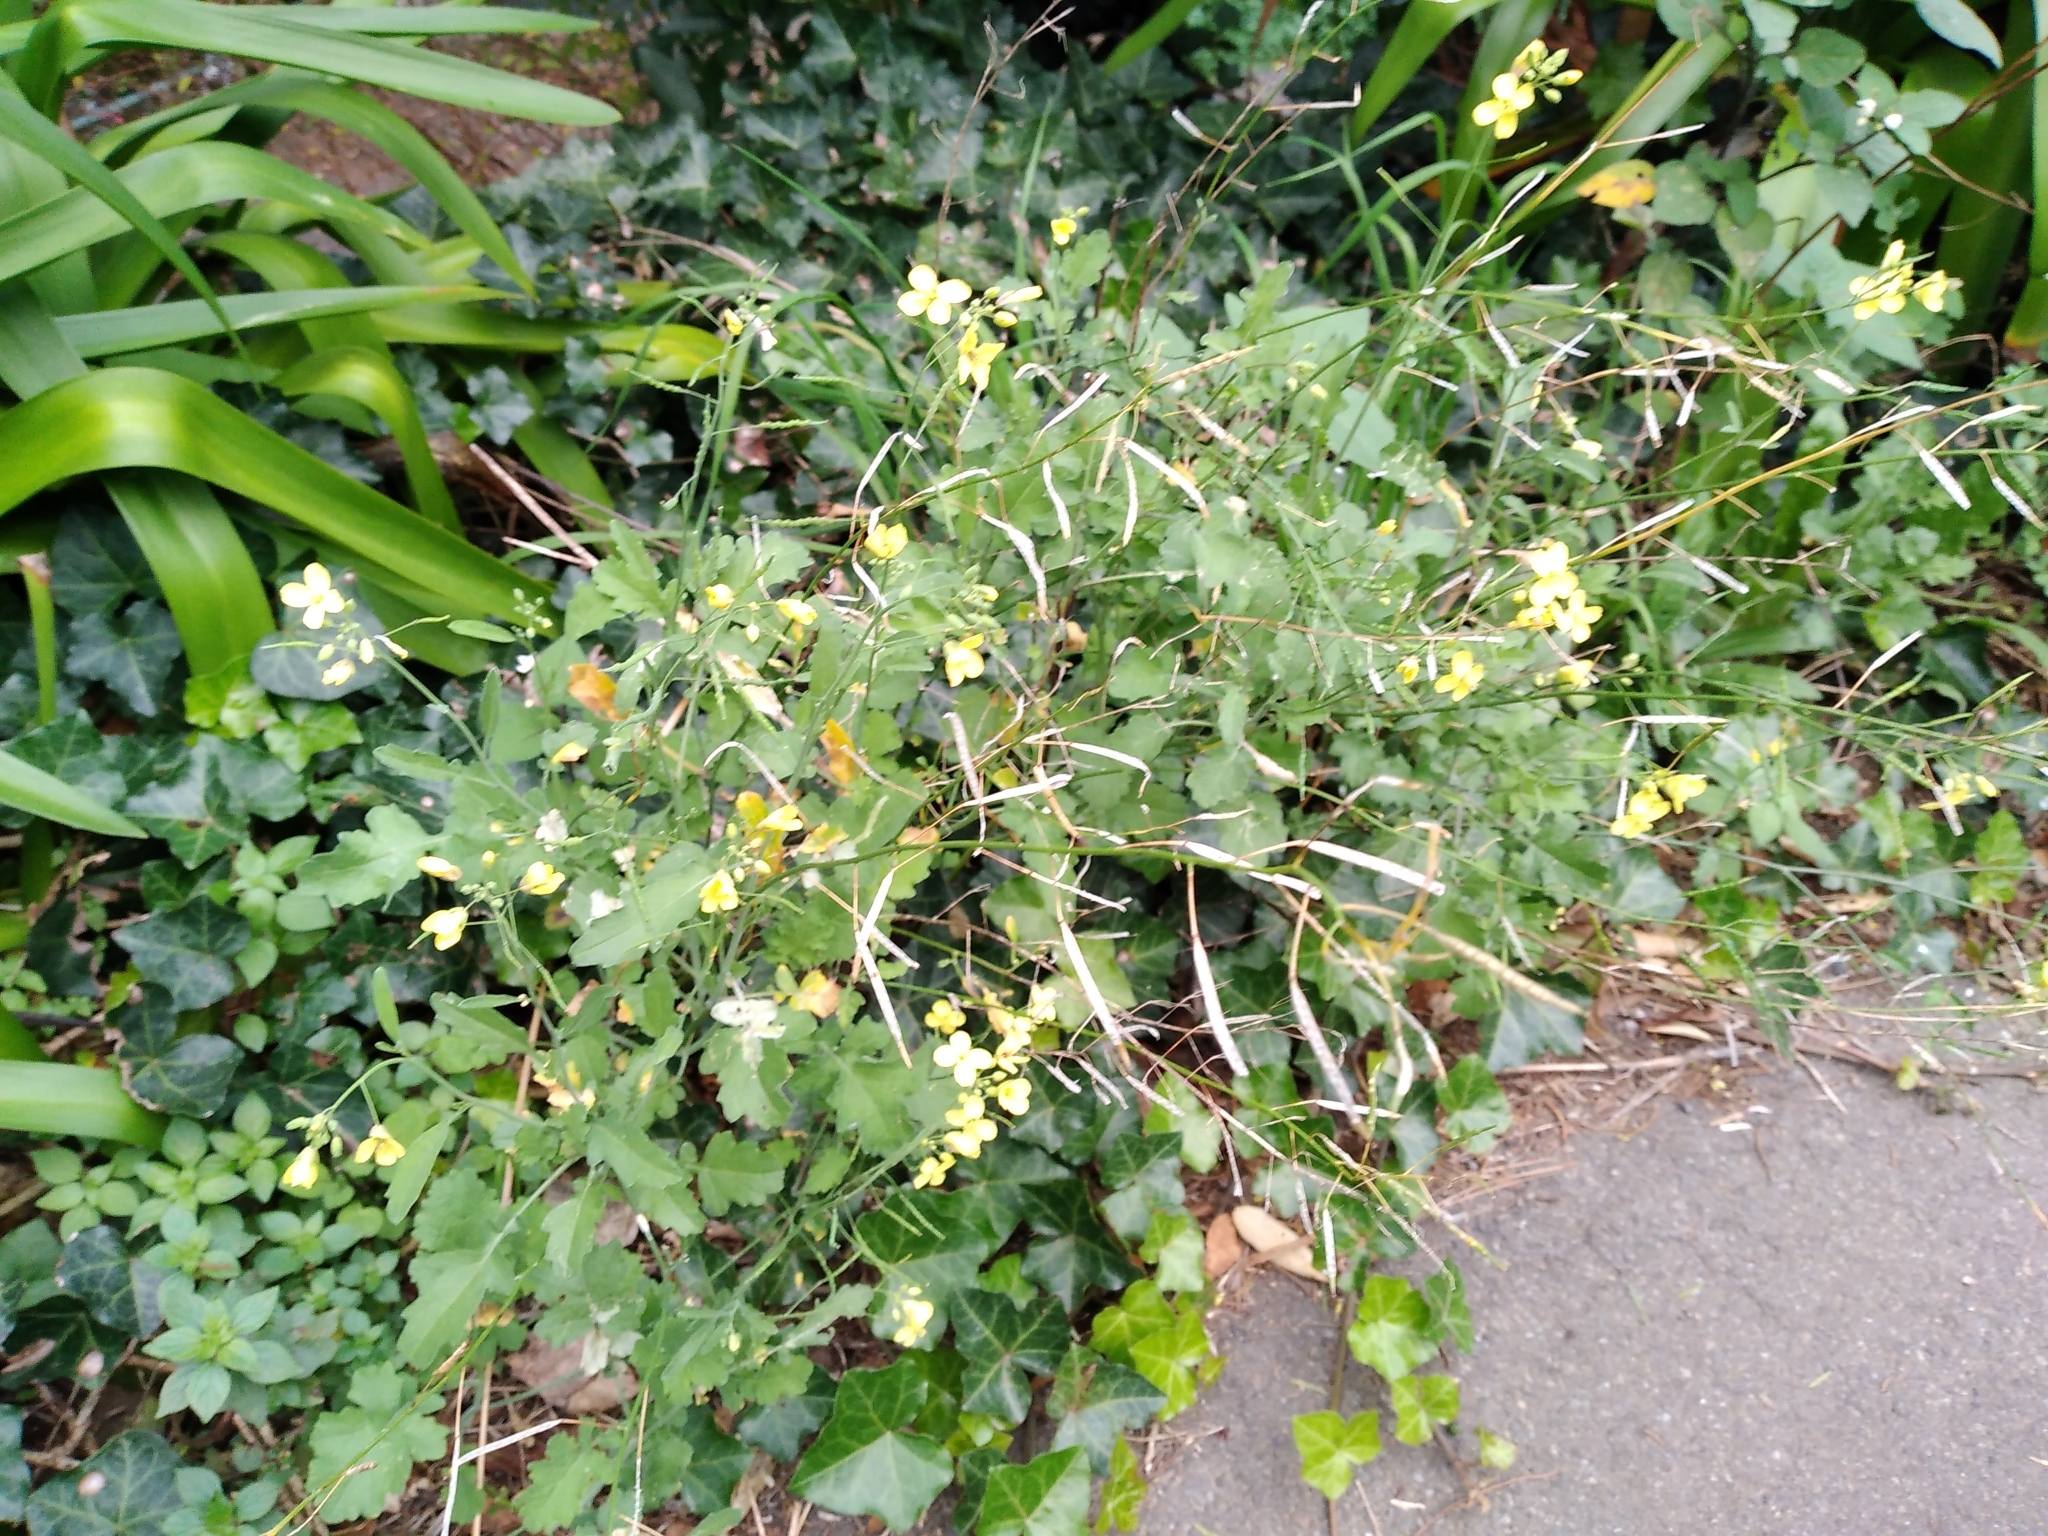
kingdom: Plantae
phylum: Tracheophyta
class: Magnoliopsida
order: Brassicales
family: Brassicaceae
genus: Brassica
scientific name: Brassica fruticulosa
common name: Twiggy turnip
